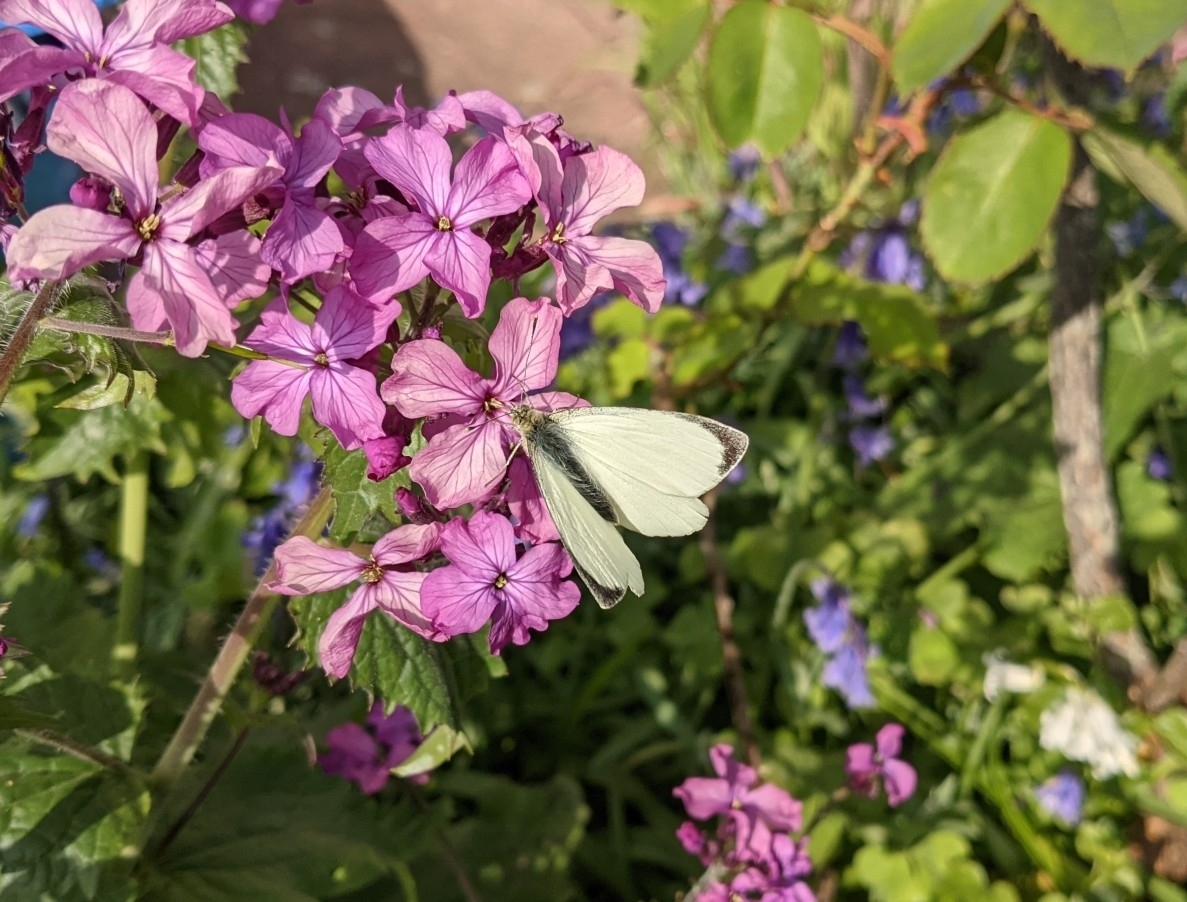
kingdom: Animalia
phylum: Arthropoda
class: Insecta
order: Lepidoptera
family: Pieridae
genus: Pieris
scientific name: Pieris brassicae
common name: Large white
